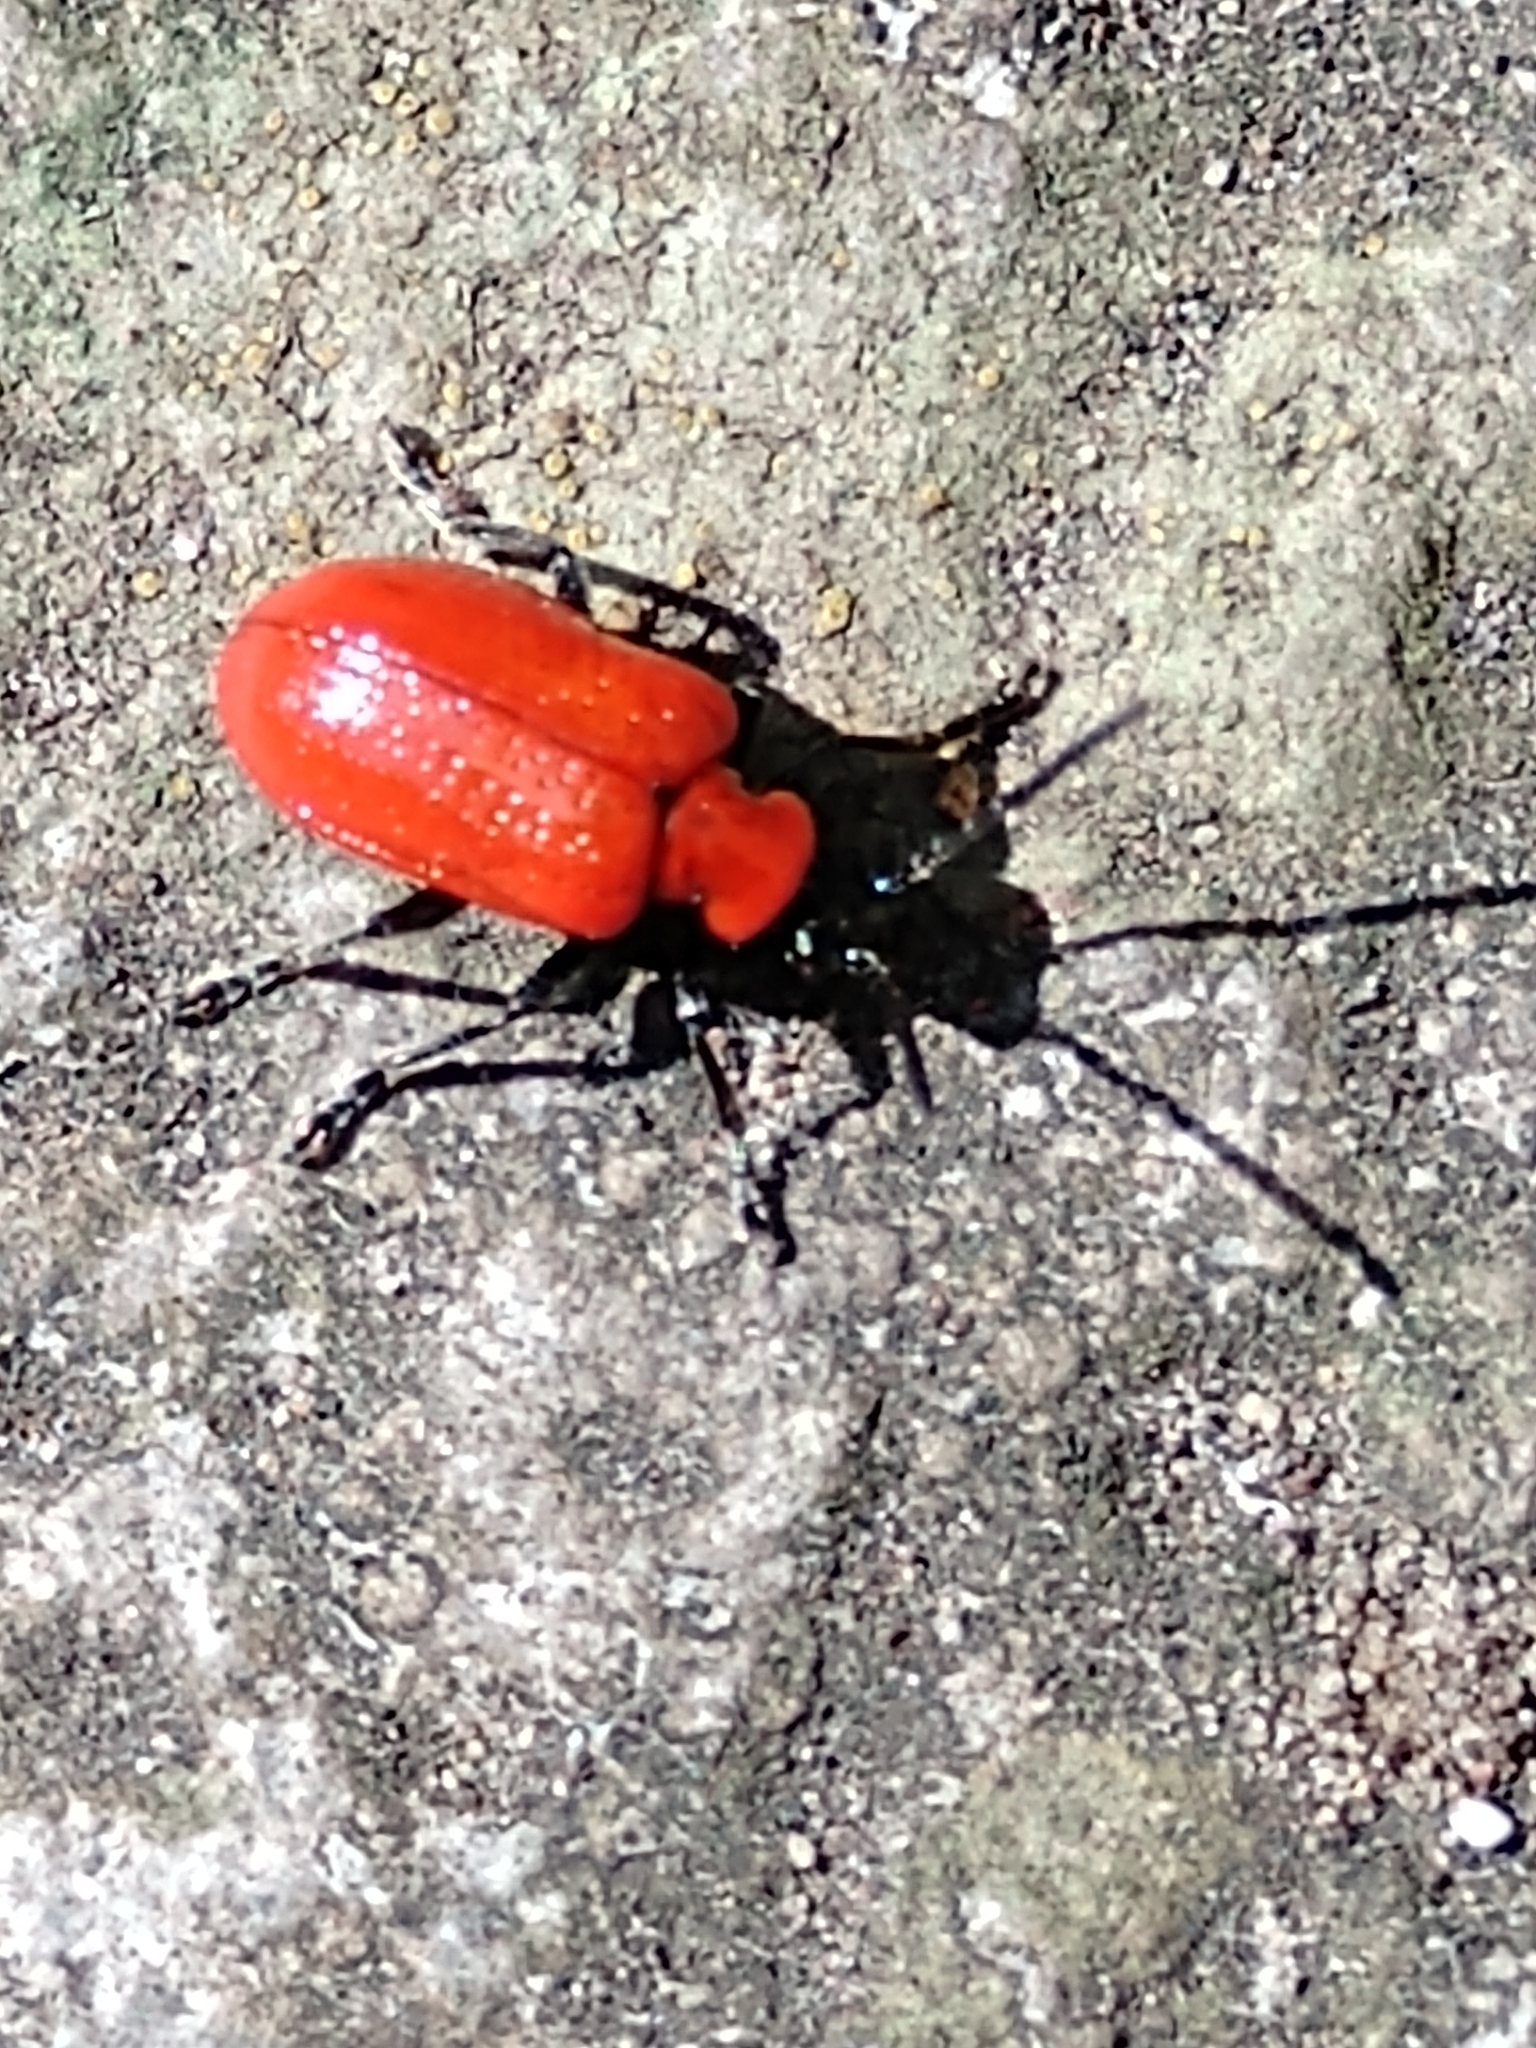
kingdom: Animalia
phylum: Arthropoda
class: Insecta
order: Coleoptera
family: Chrysomelidae
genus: Lilioceris
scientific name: Lilioceris lilii
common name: Lily beetle
